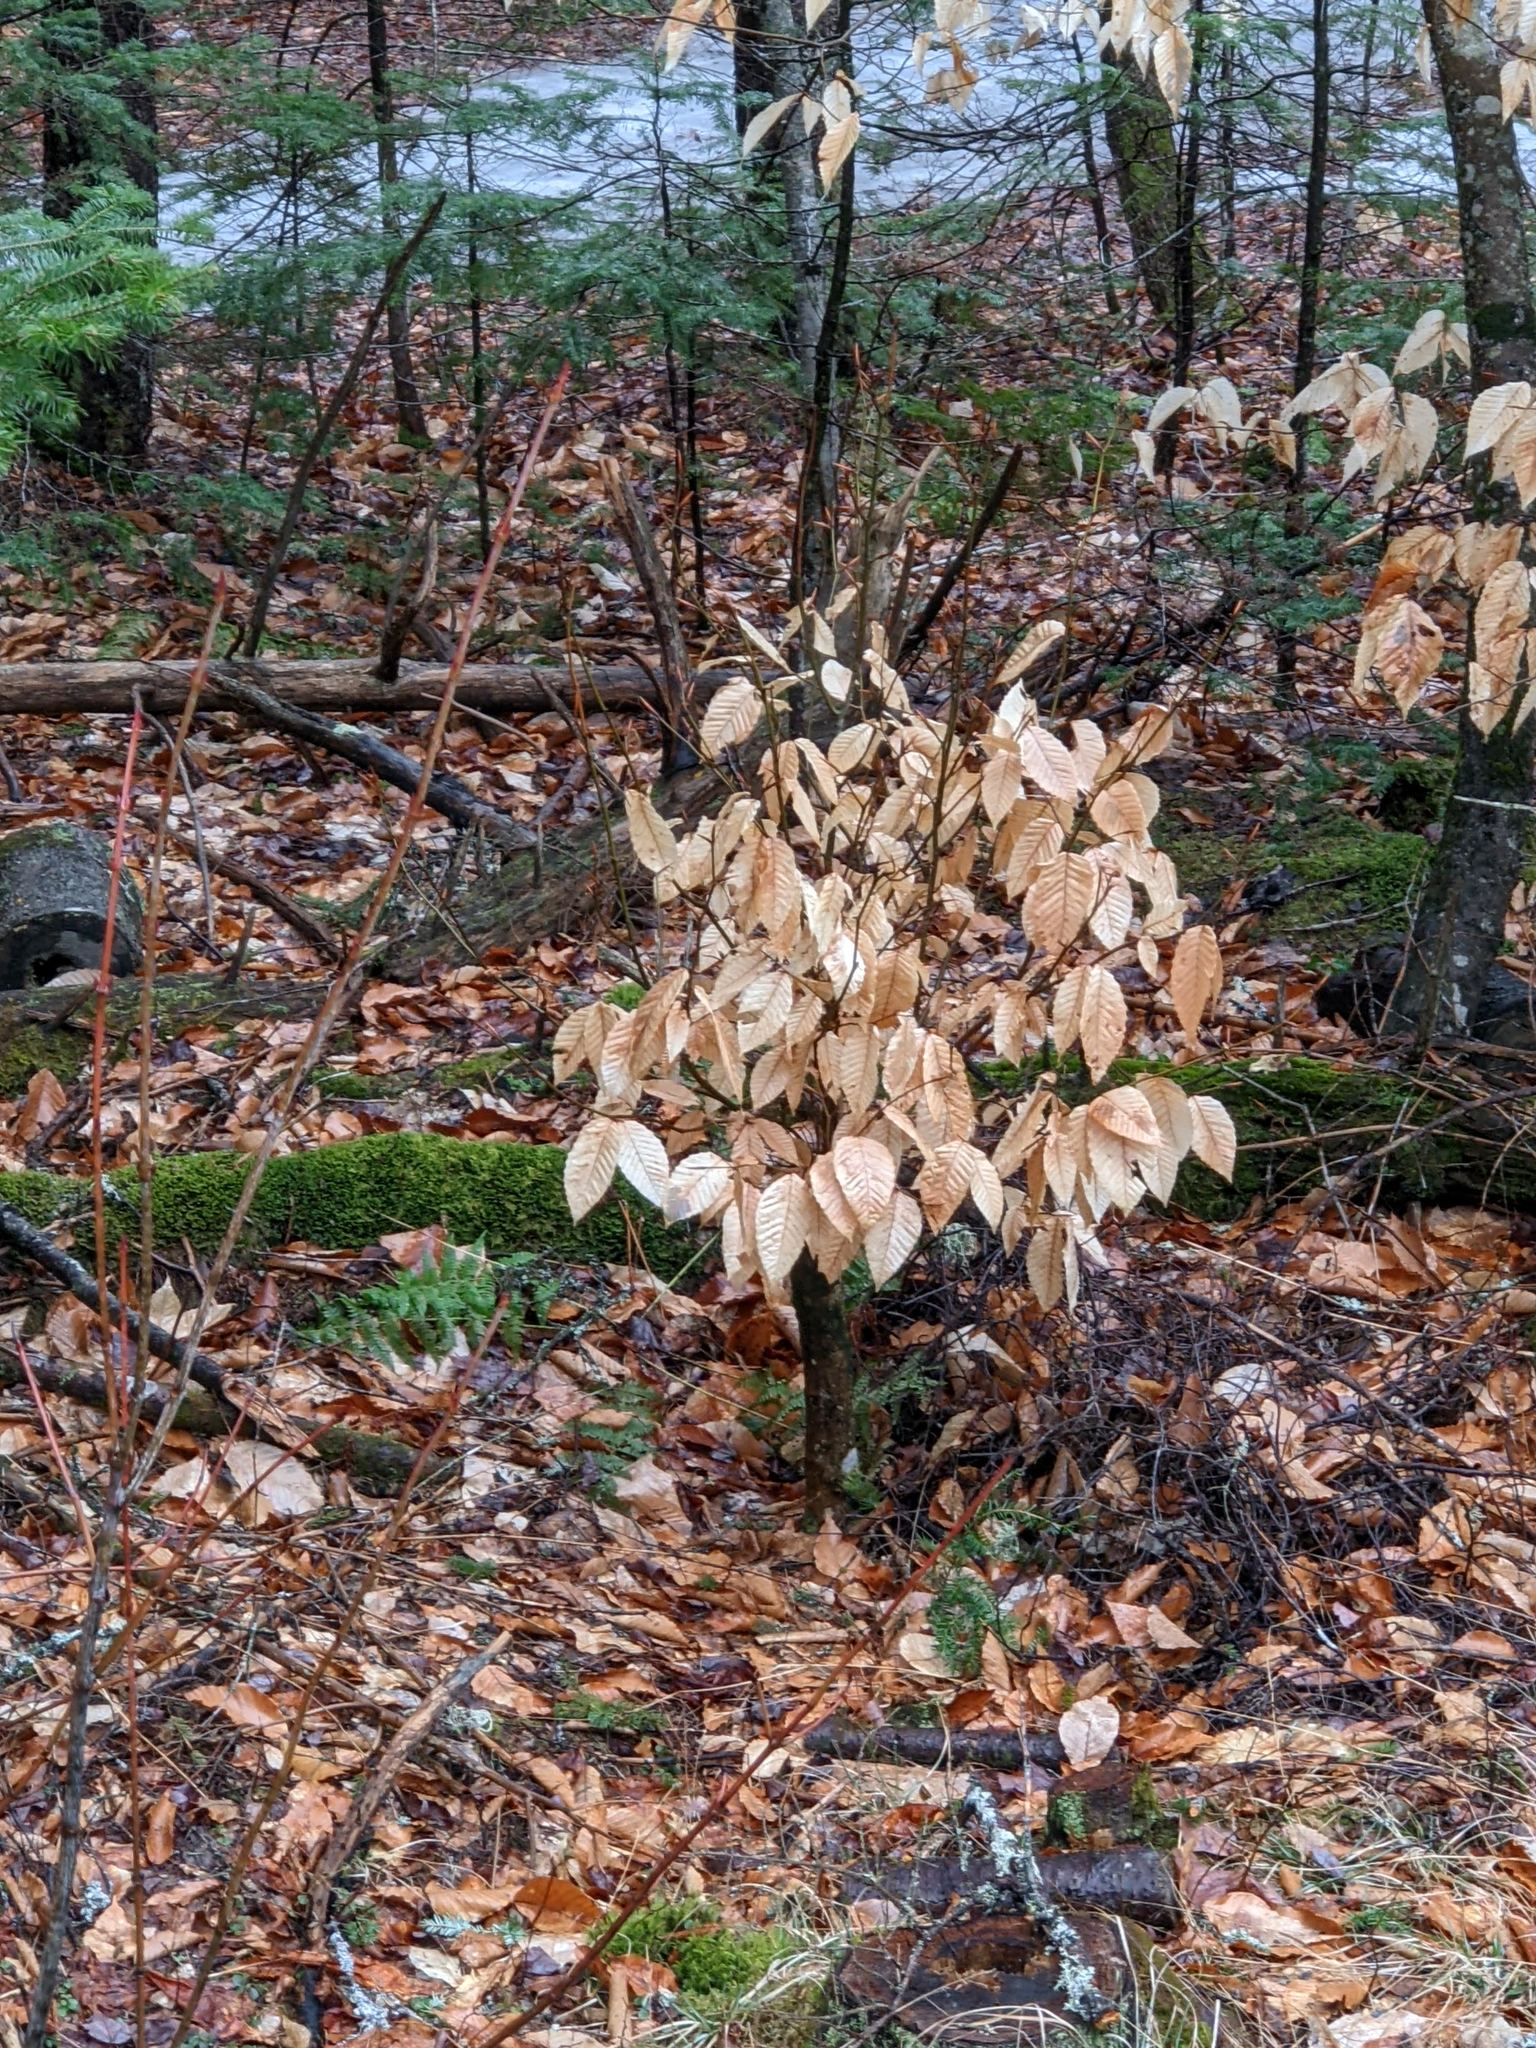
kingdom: Plantae
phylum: Tracheophyta
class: Magnoliopsida
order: Fagales
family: Fagaceae
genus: Fagus
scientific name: Fagus grandifolia
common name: American beech
